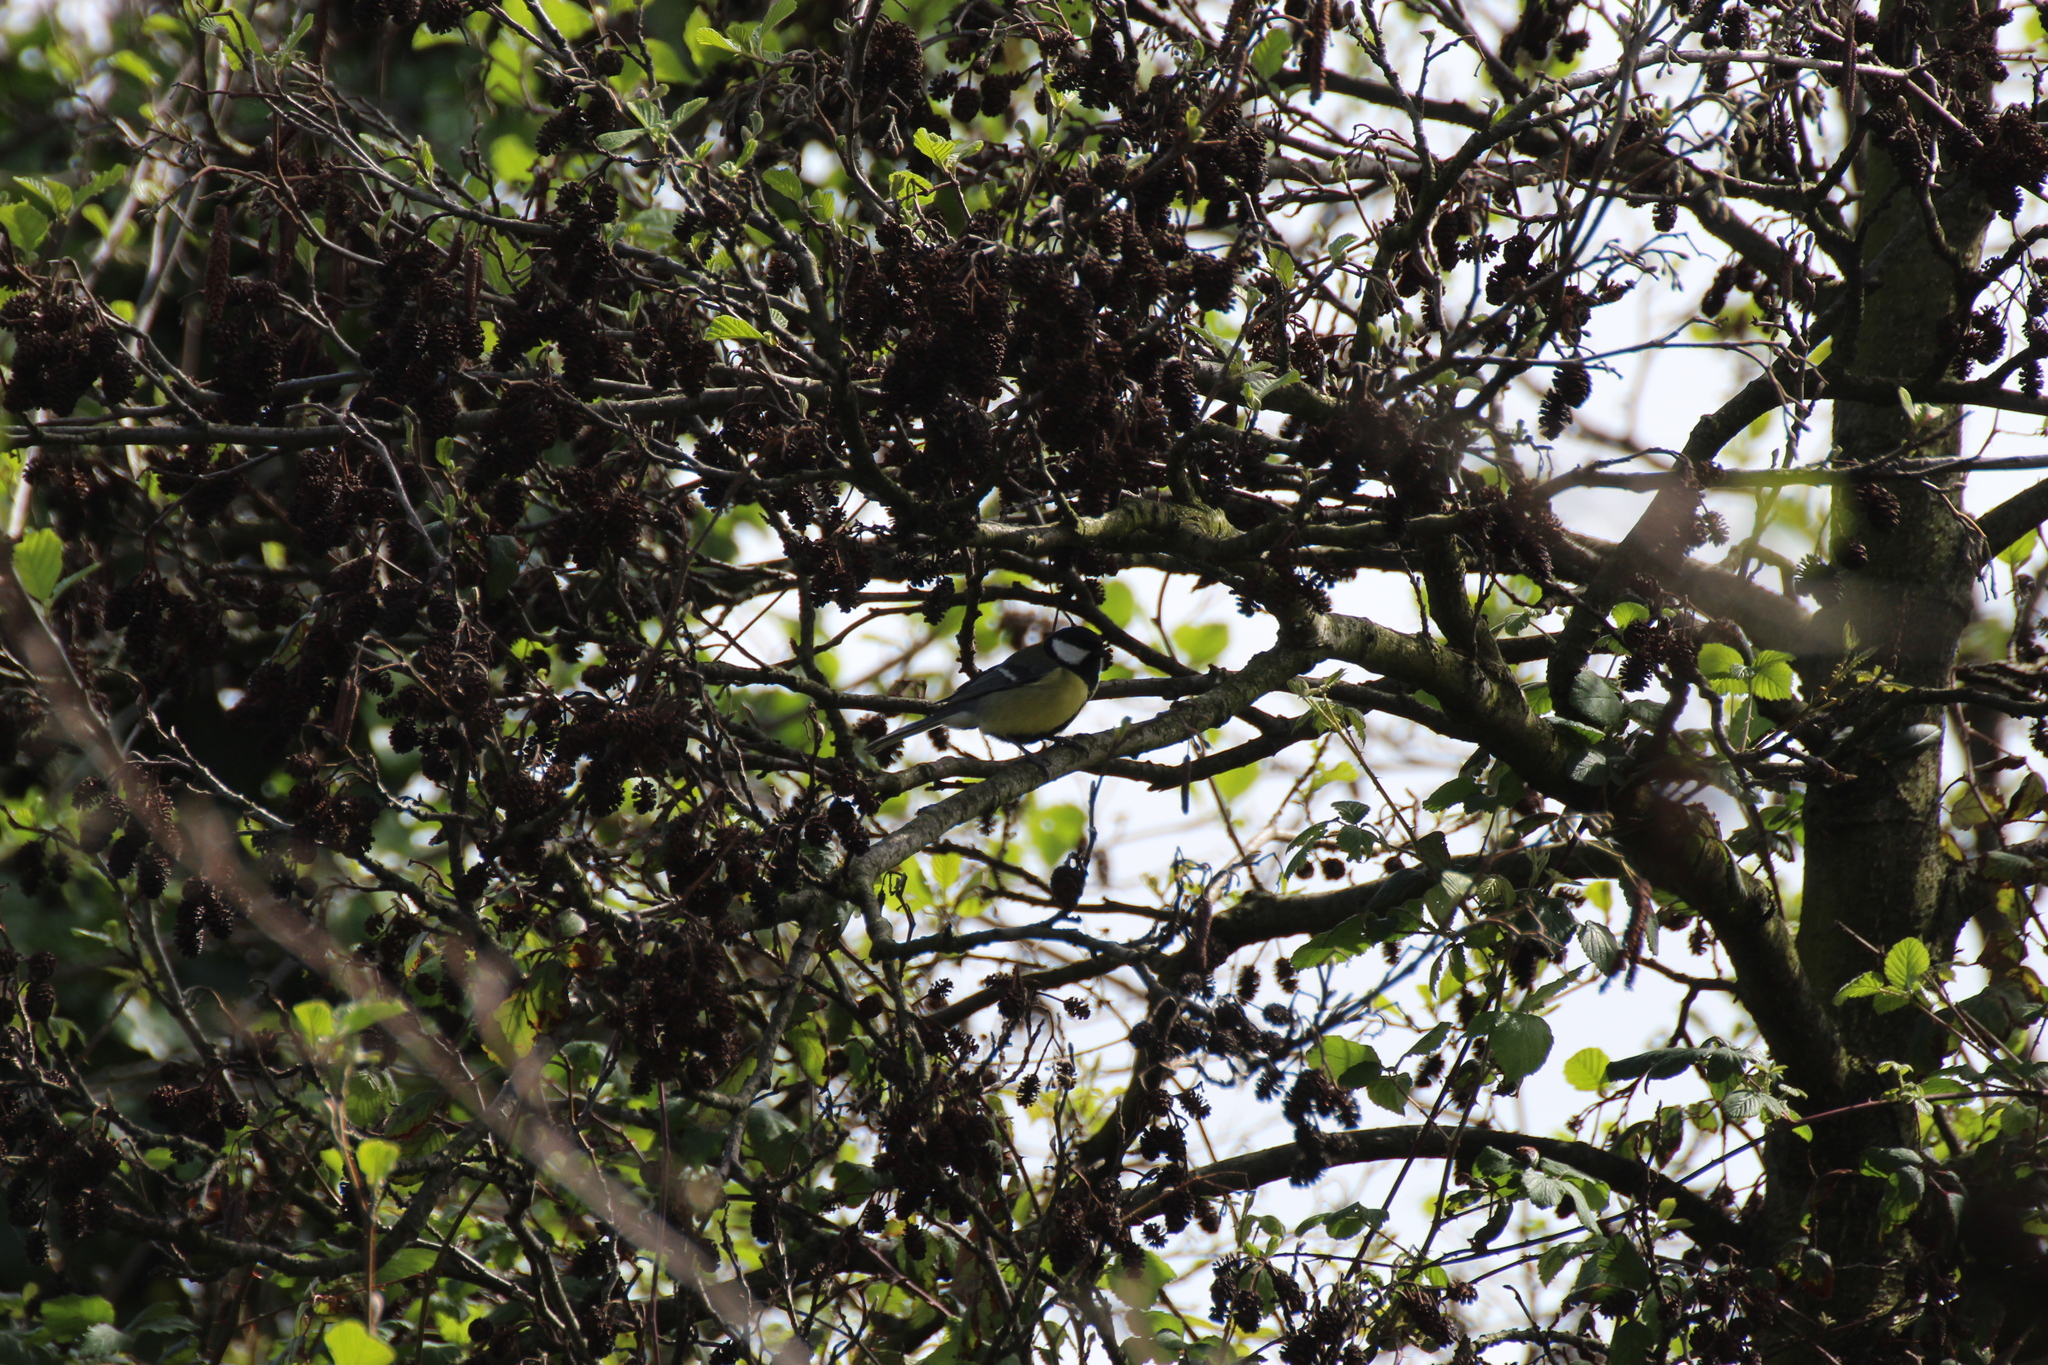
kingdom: Animalia
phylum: Chordata
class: Aves
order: Passeriformes
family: Paridae
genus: Parus
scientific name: Parus major
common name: Great tit
